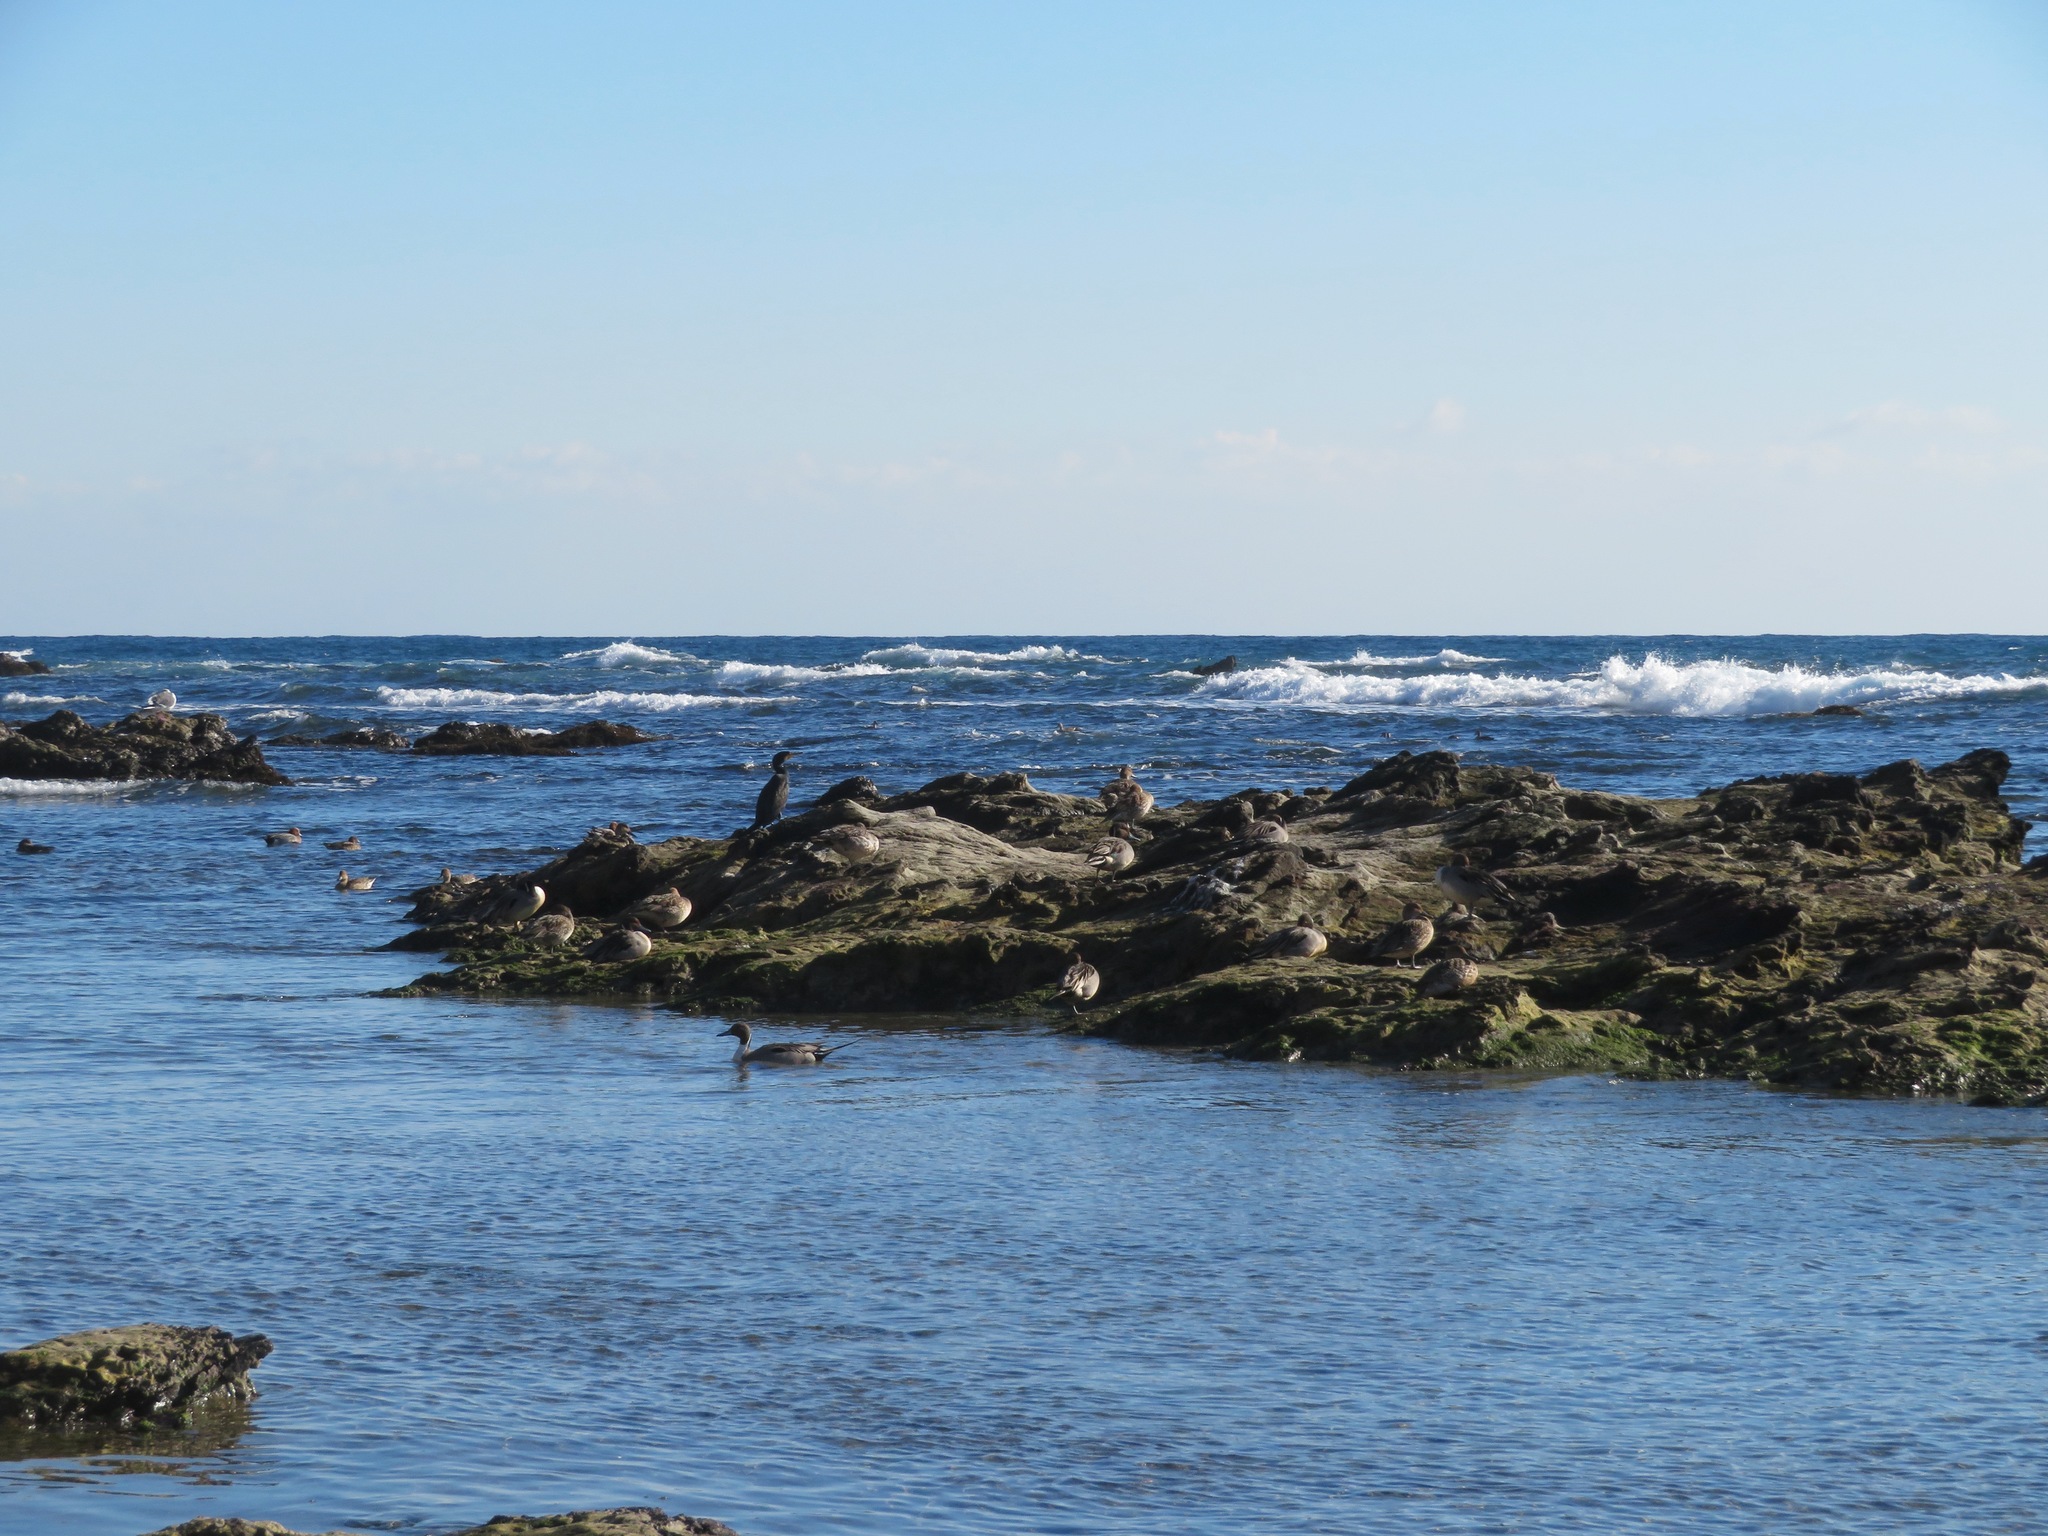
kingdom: Animalia
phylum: Chordata
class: Aves
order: Anseriformes
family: Anatidae
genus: Anas
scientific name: Anas acuta
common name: Northern pintail
